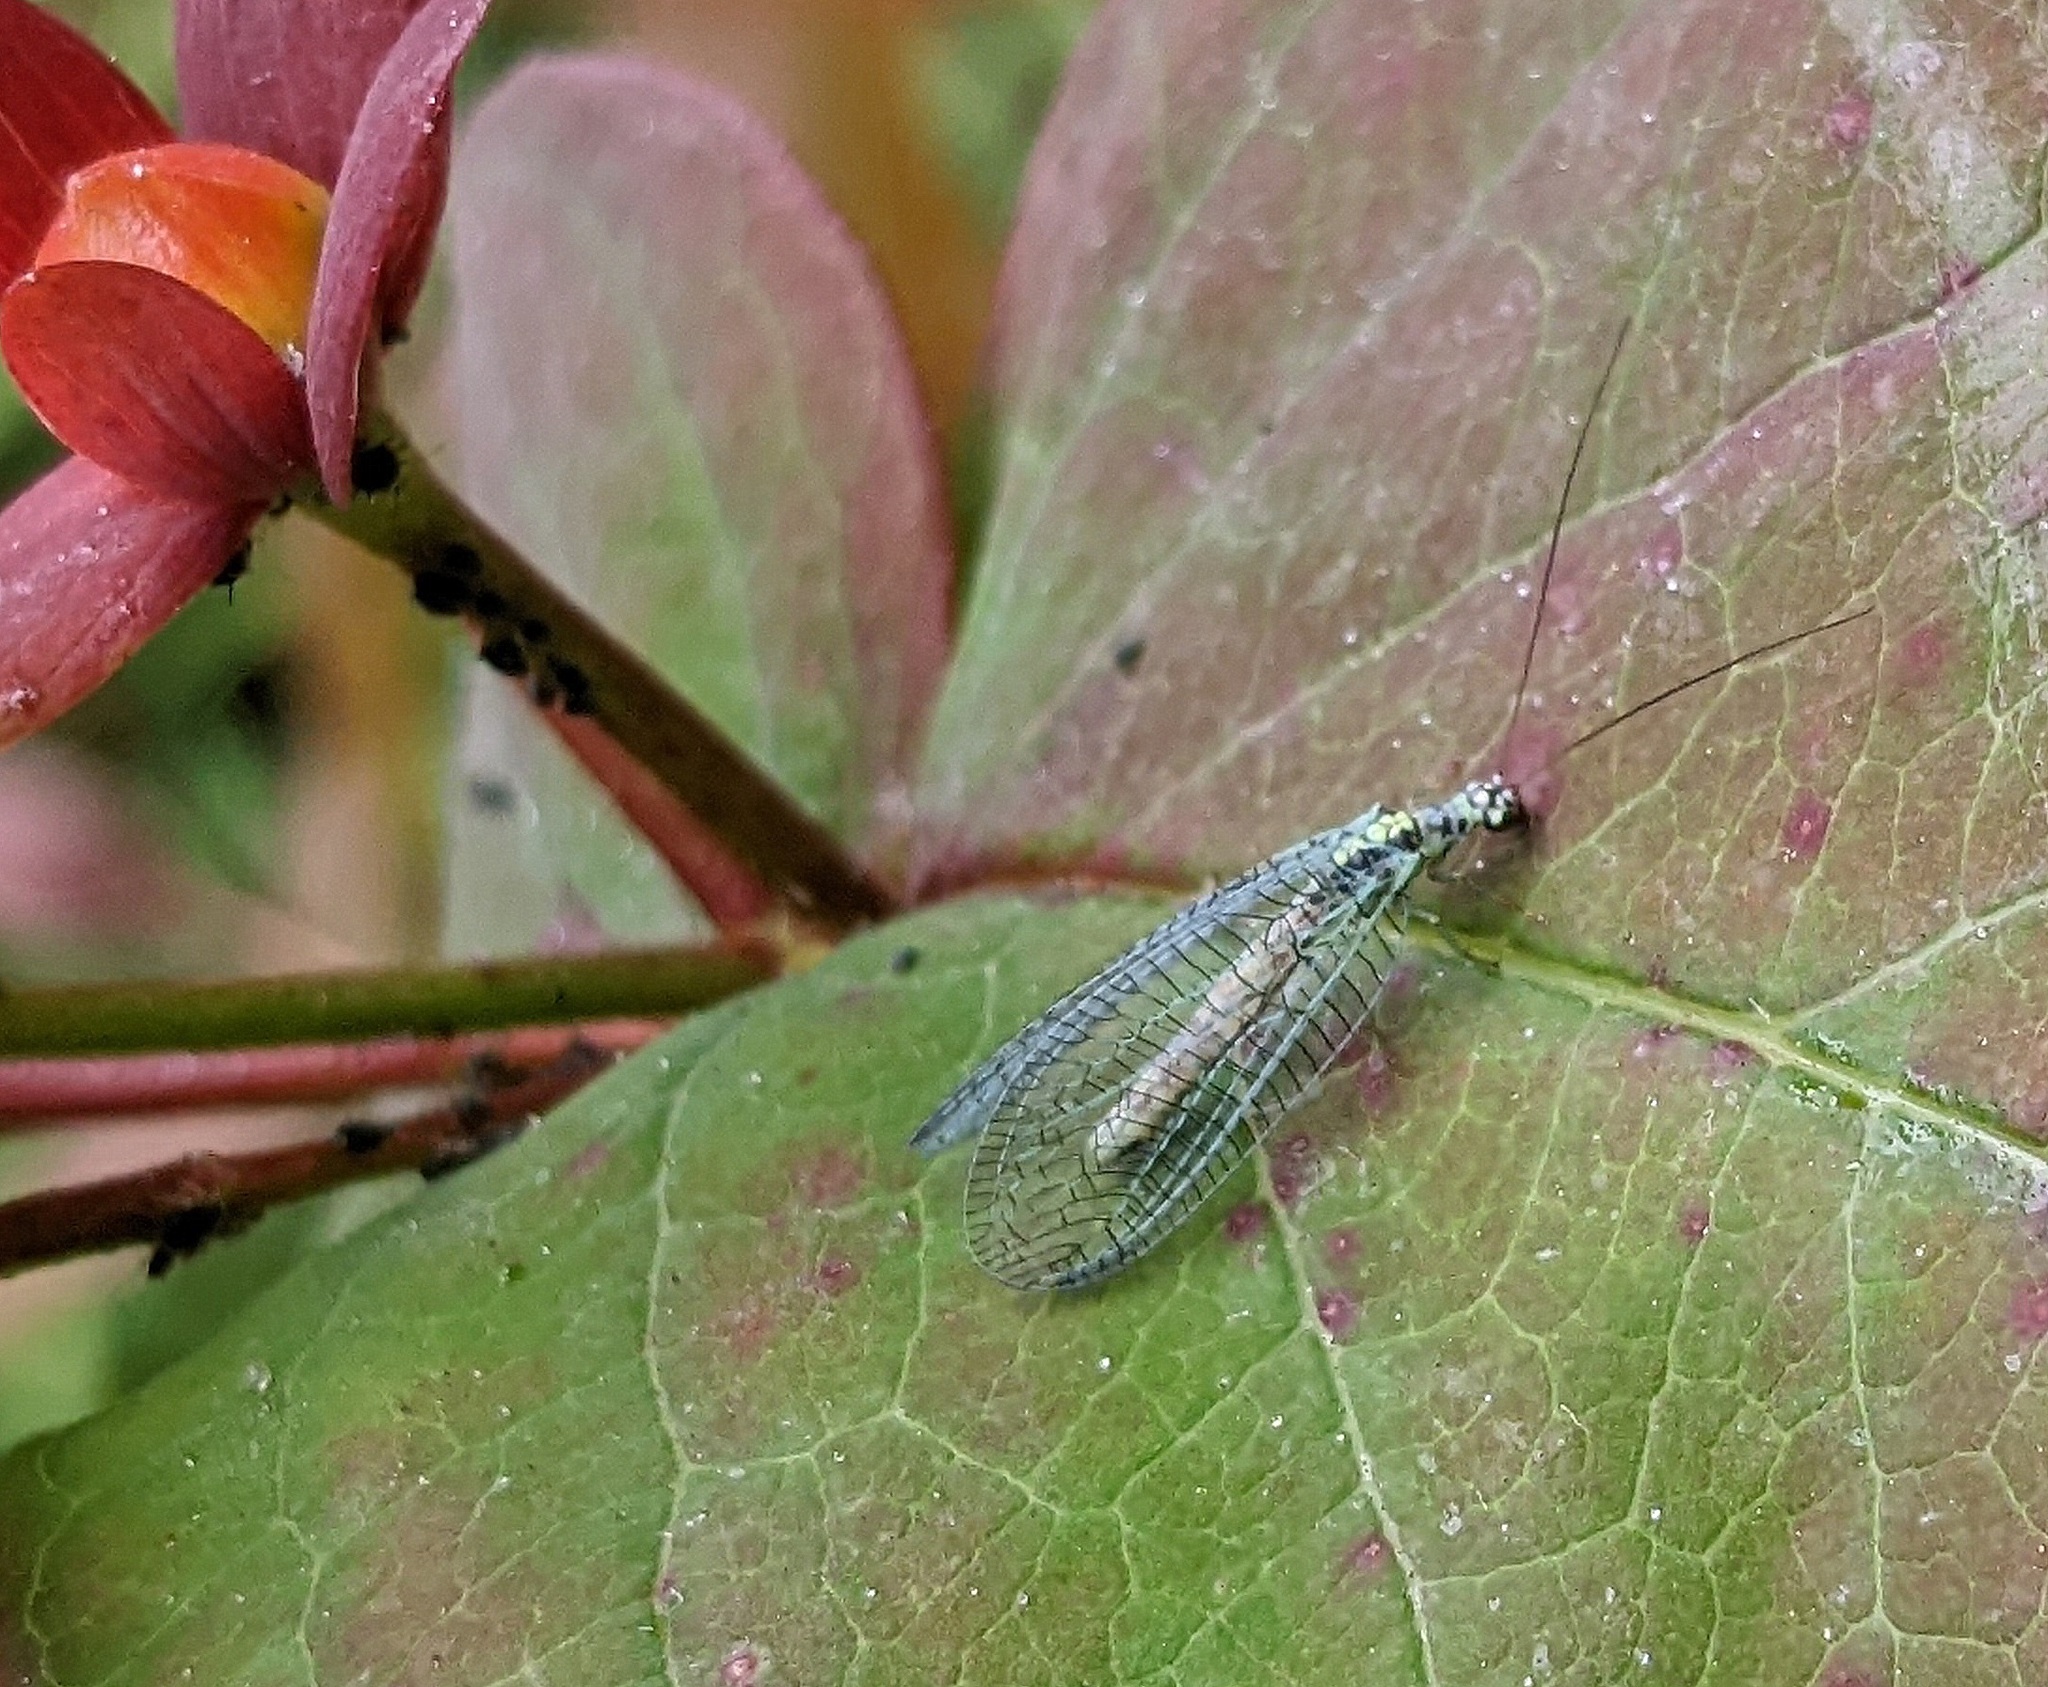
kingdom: Animalia
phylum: Arthropoda
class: Insecta
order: Neuroptera
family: Chrysopidae
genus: Chrysopa
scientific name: Chrysopa perla
